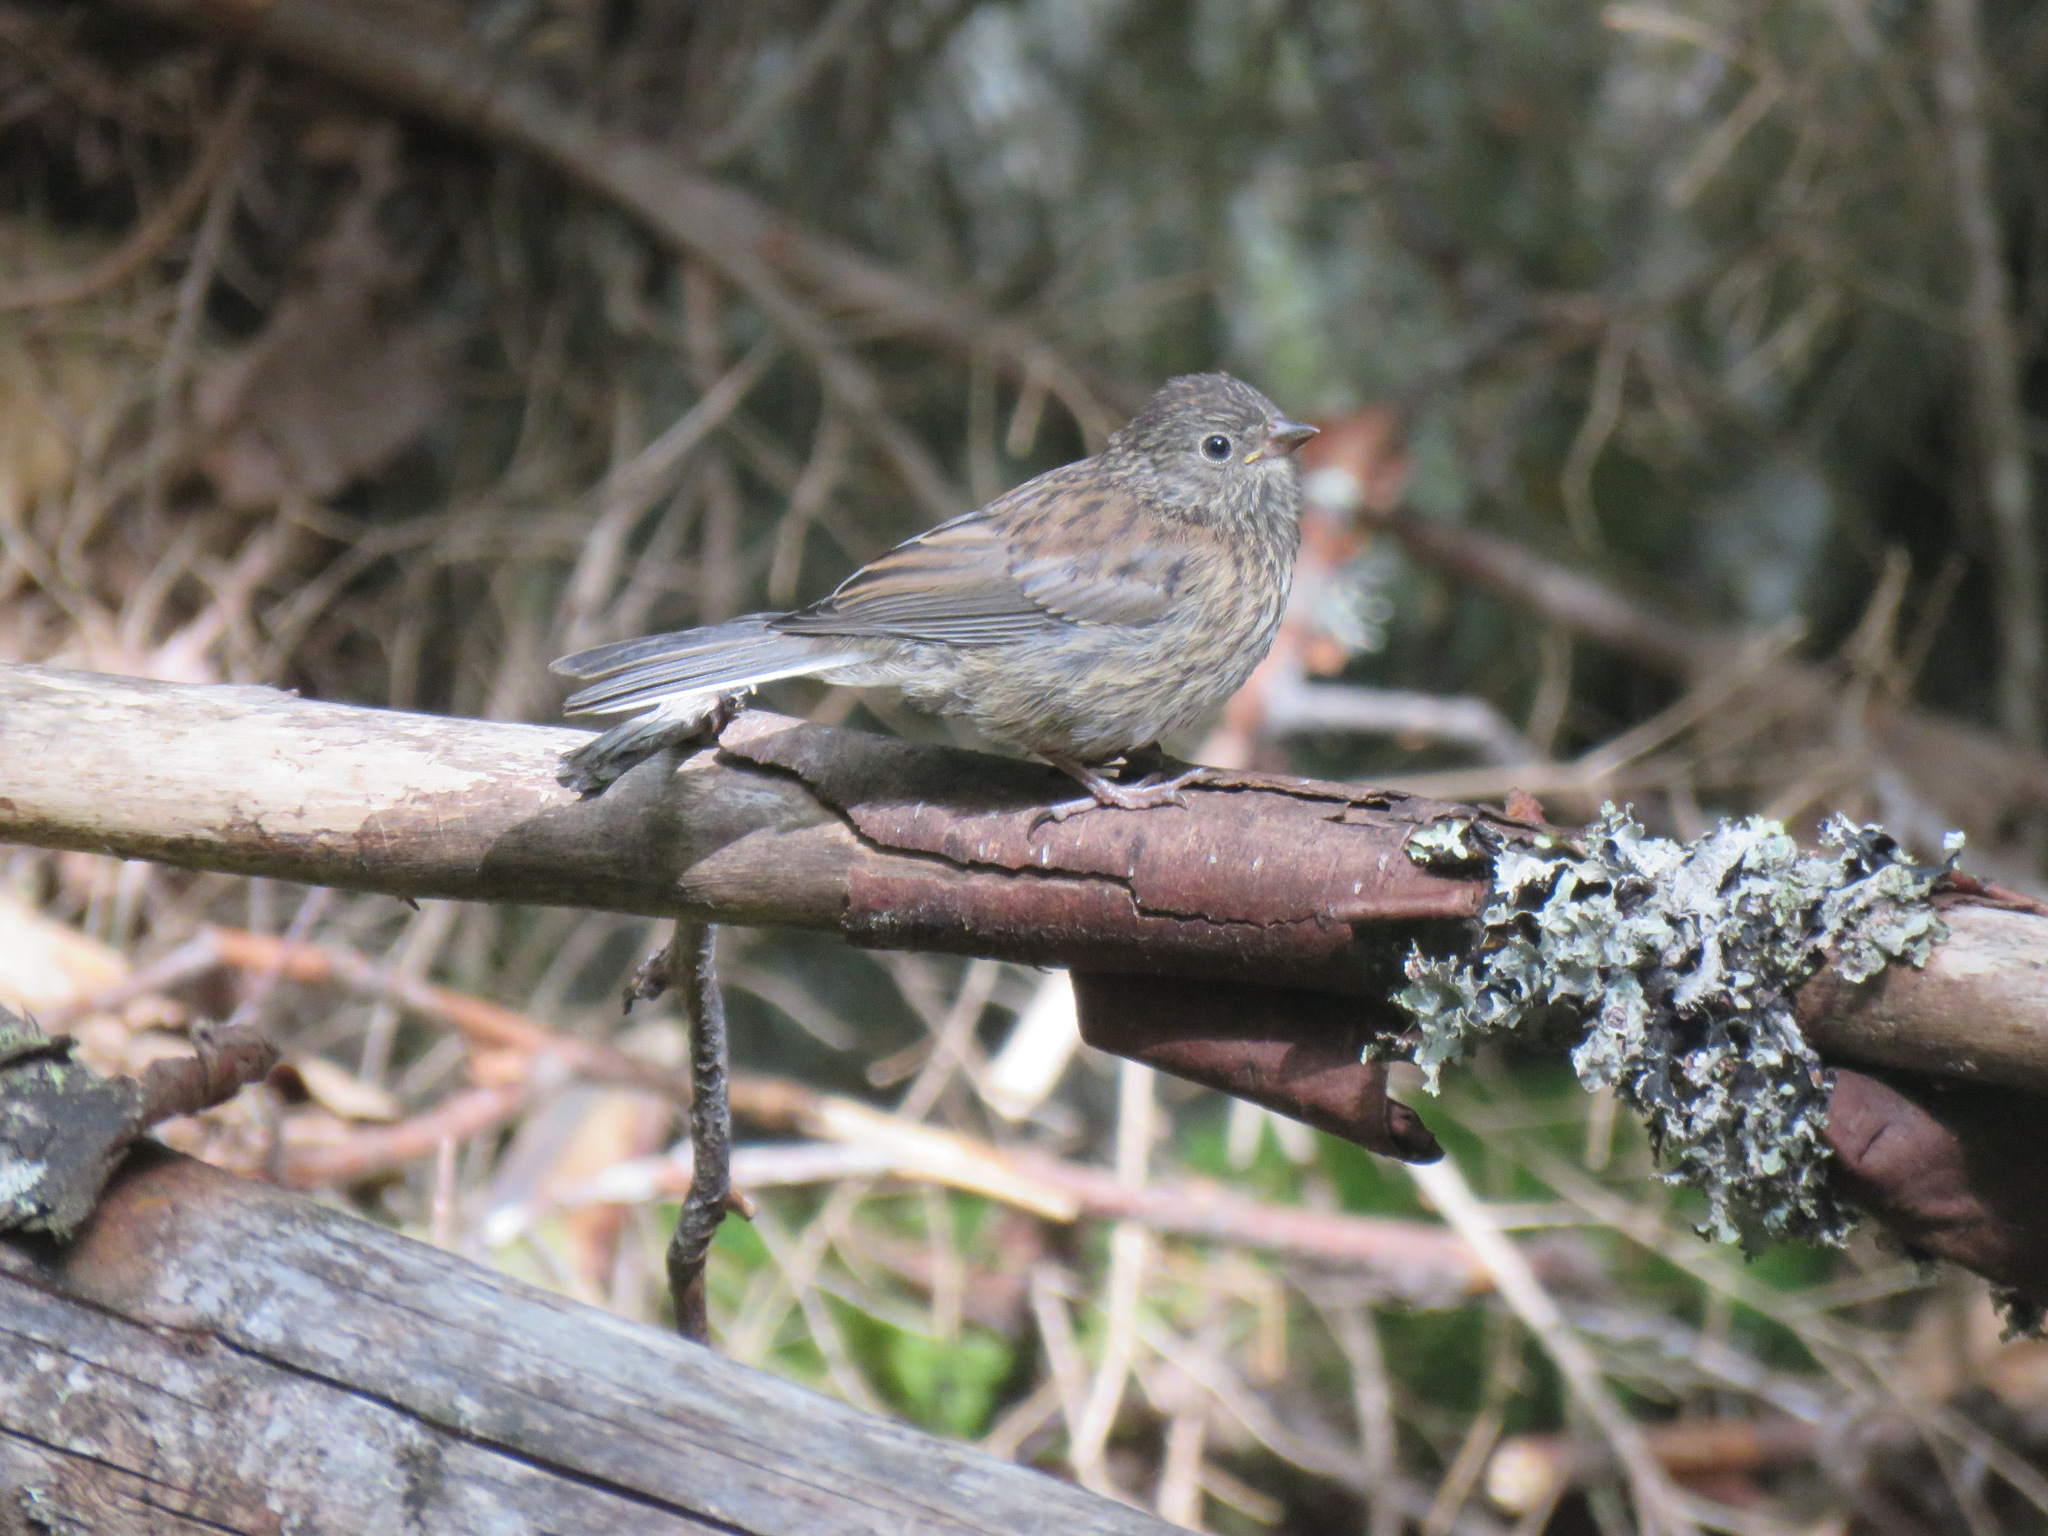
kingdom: Animalia
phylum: Chordata
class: Aves
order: Passeriformes
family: Passerellidae
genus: Junco
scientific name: Junco hyemalis
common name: Dark-eyed junco
